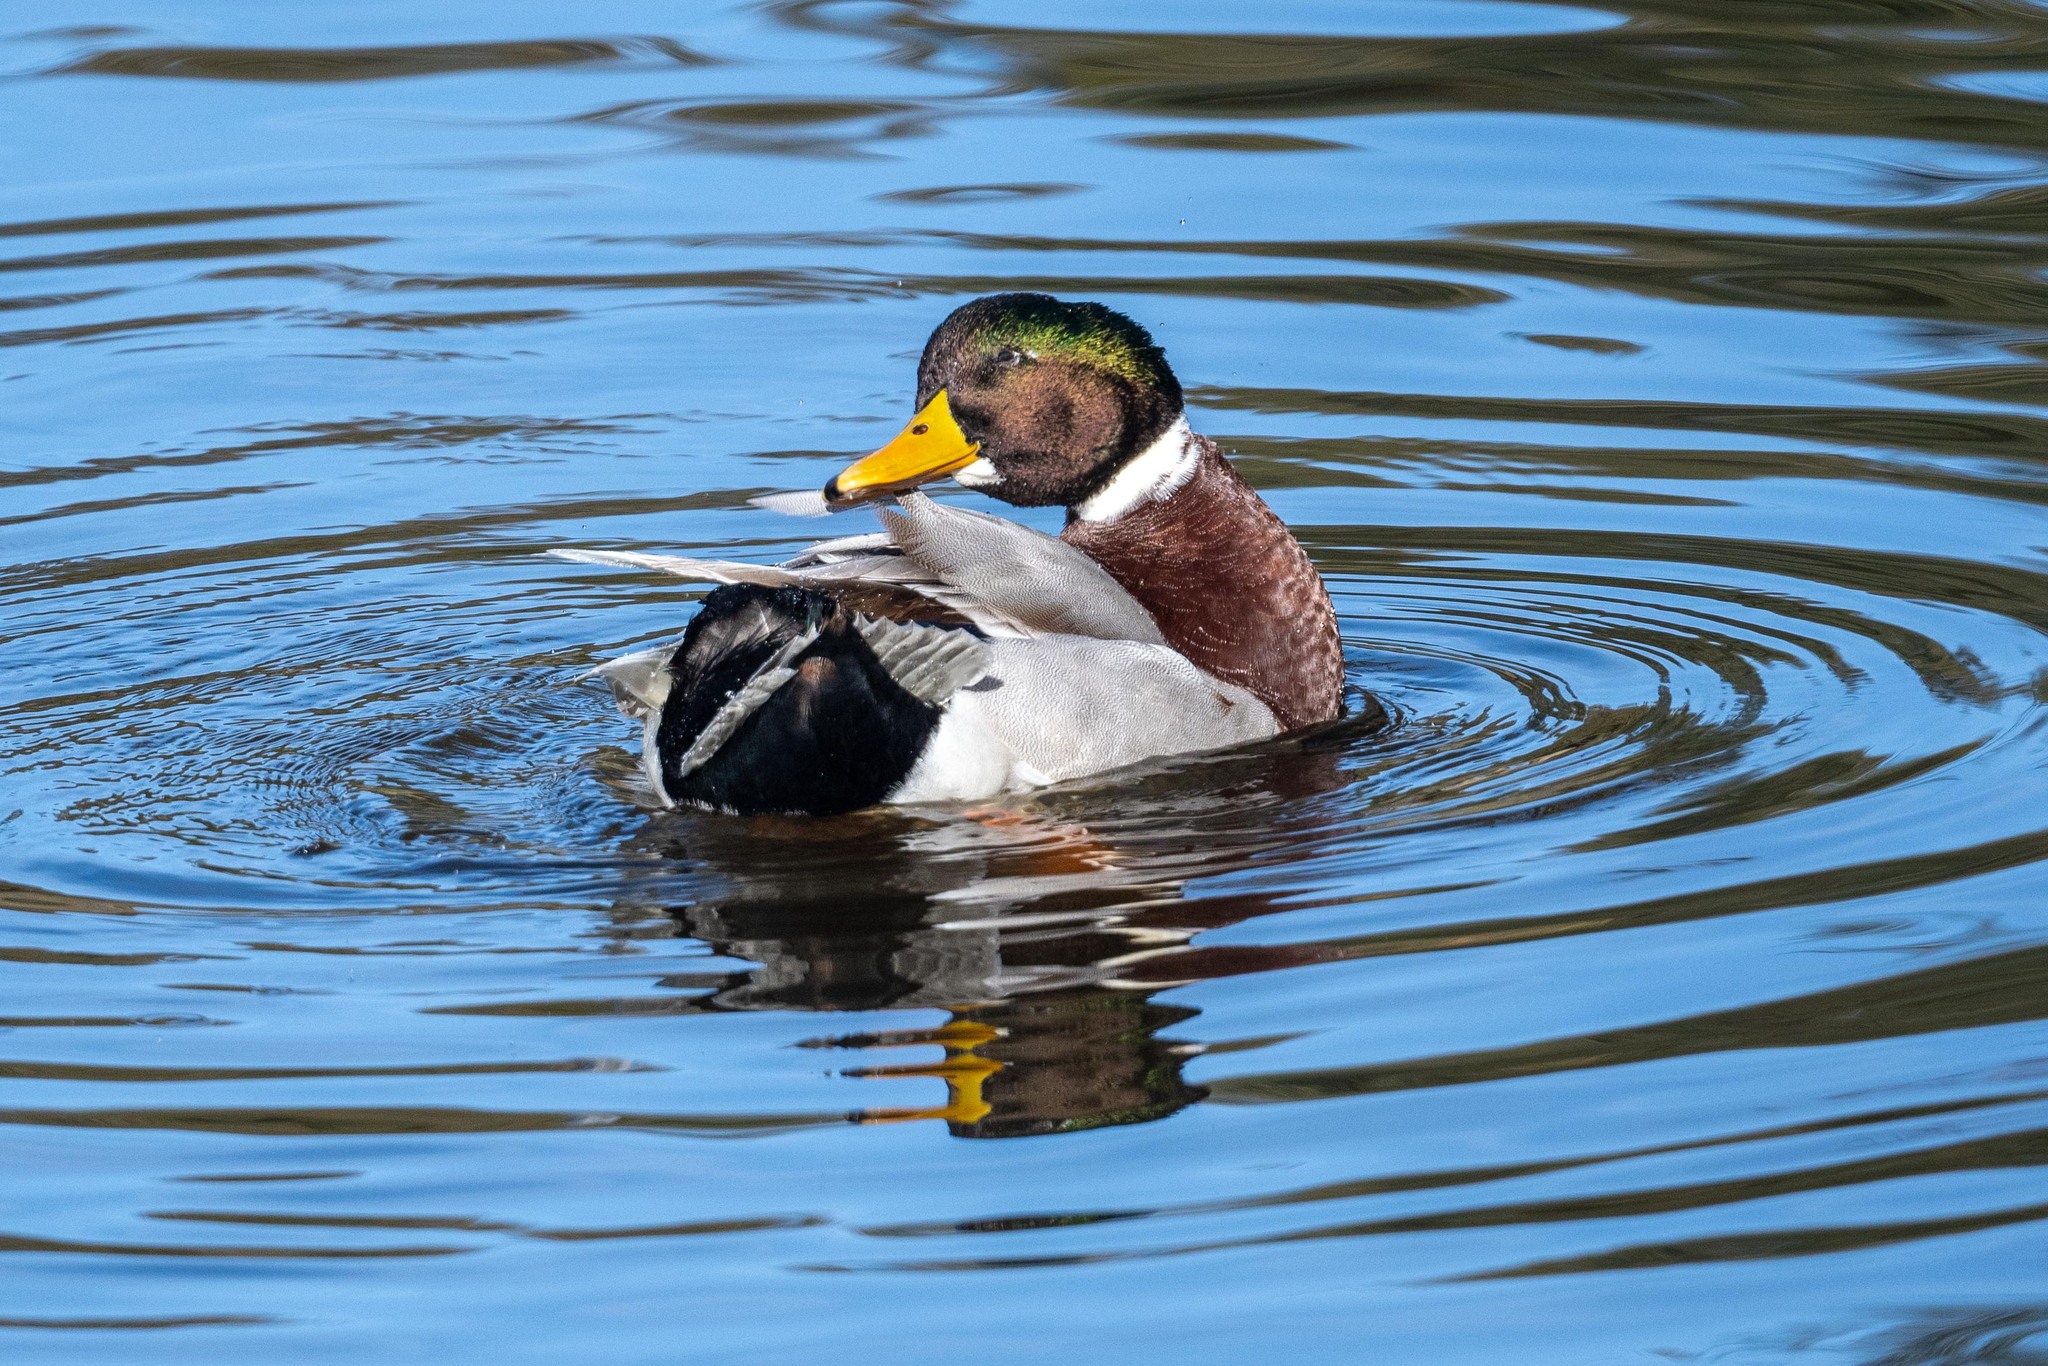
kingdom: Animalia
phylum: Chordata
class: Aves
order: Anseriformes
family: Anatidae
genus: Anas
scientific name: Anas platyrhynchos
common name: Mallard
